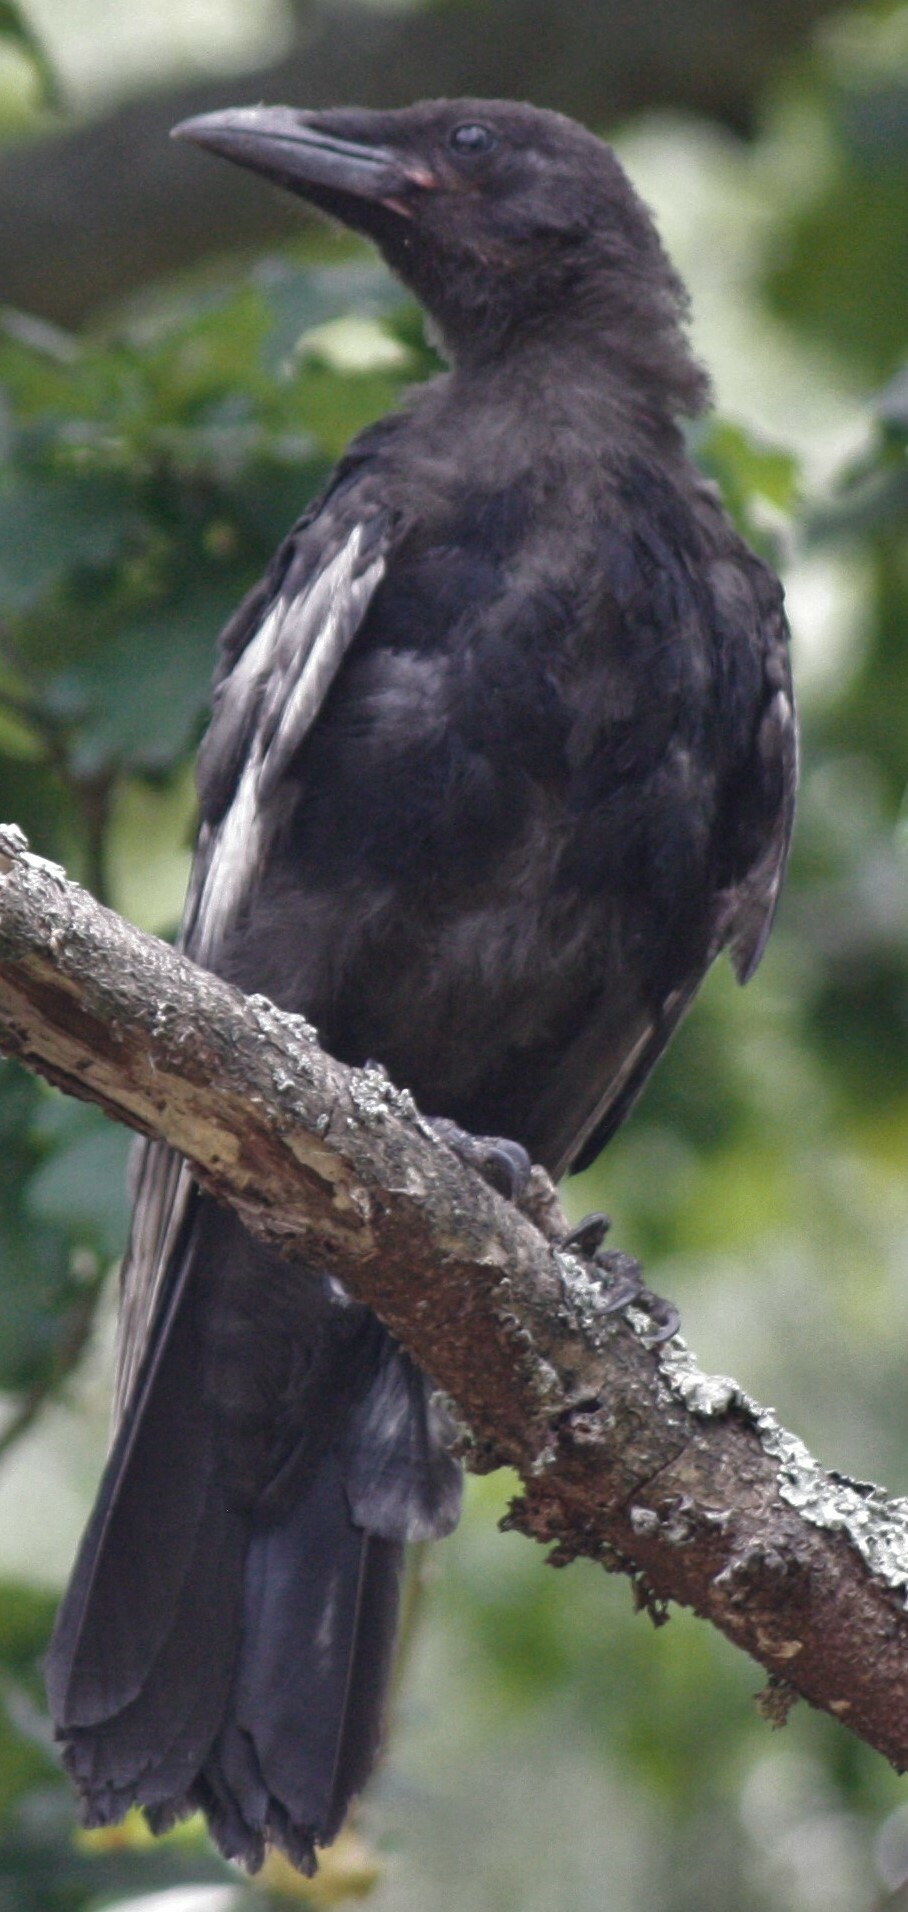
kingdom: Animalia
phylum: Chordata
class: Aves
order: Passeriformes
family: Corvidae
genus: Corvus
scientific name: Corvus corone
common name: Carrion crow
